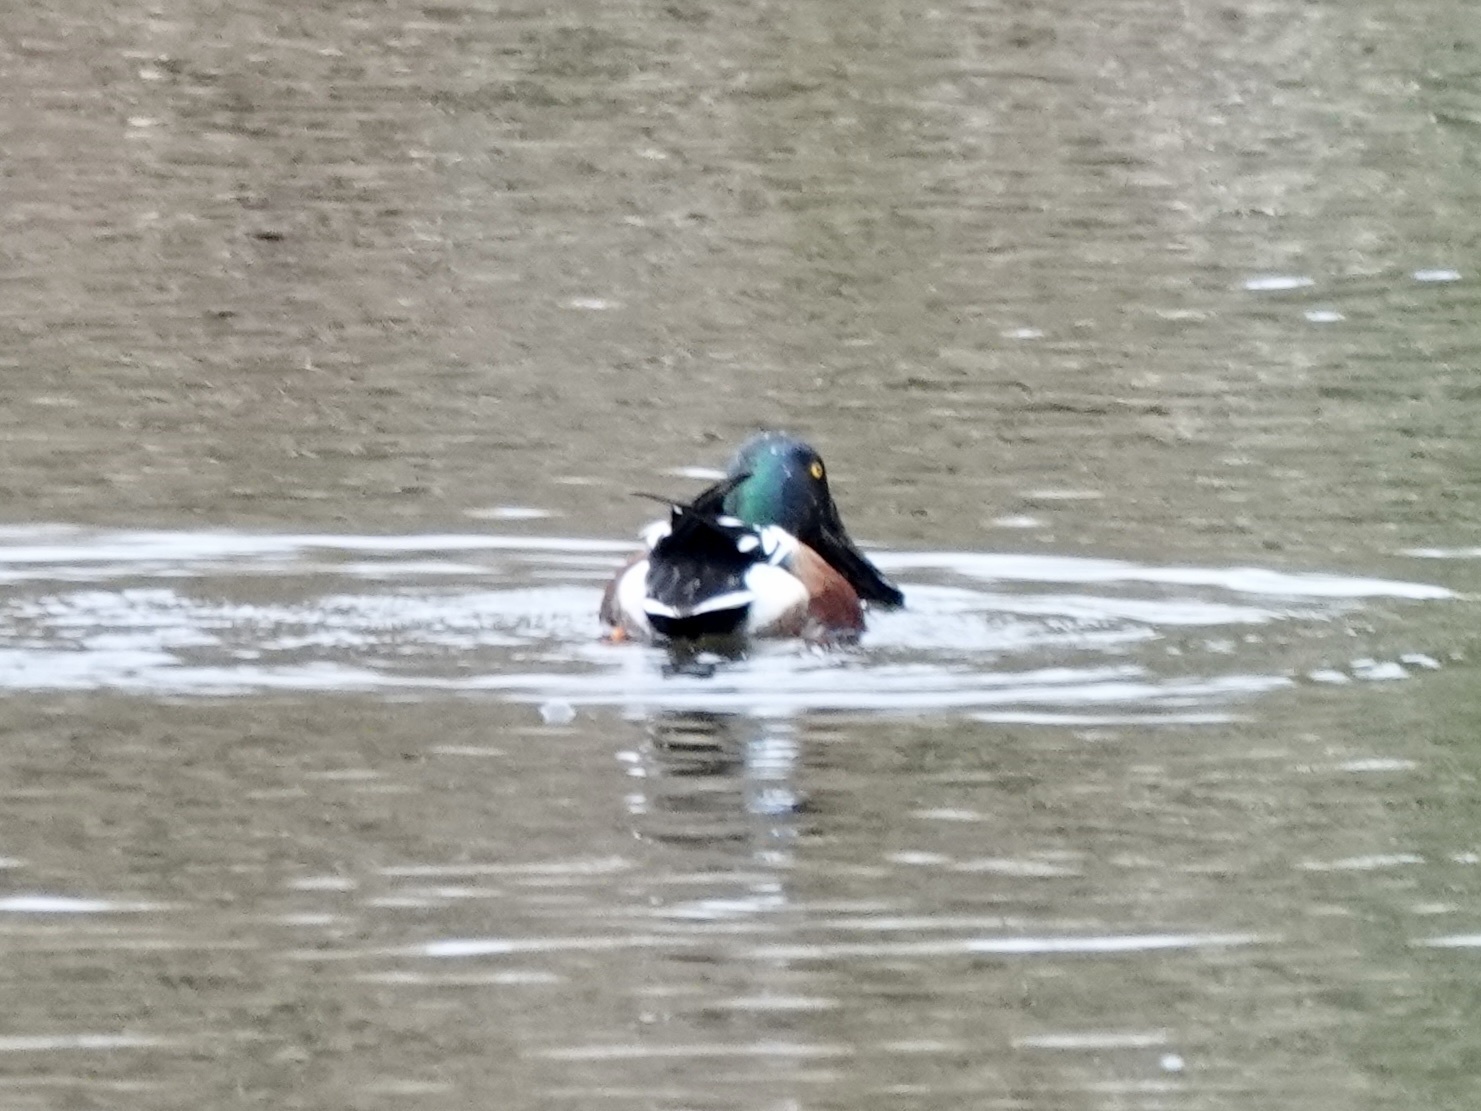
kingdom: Animalia
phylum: Chordata
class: Aves
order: Anseriformes
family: Anatidae
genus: Spatula
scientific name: Spatula clypeata
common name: Northern shoveler
